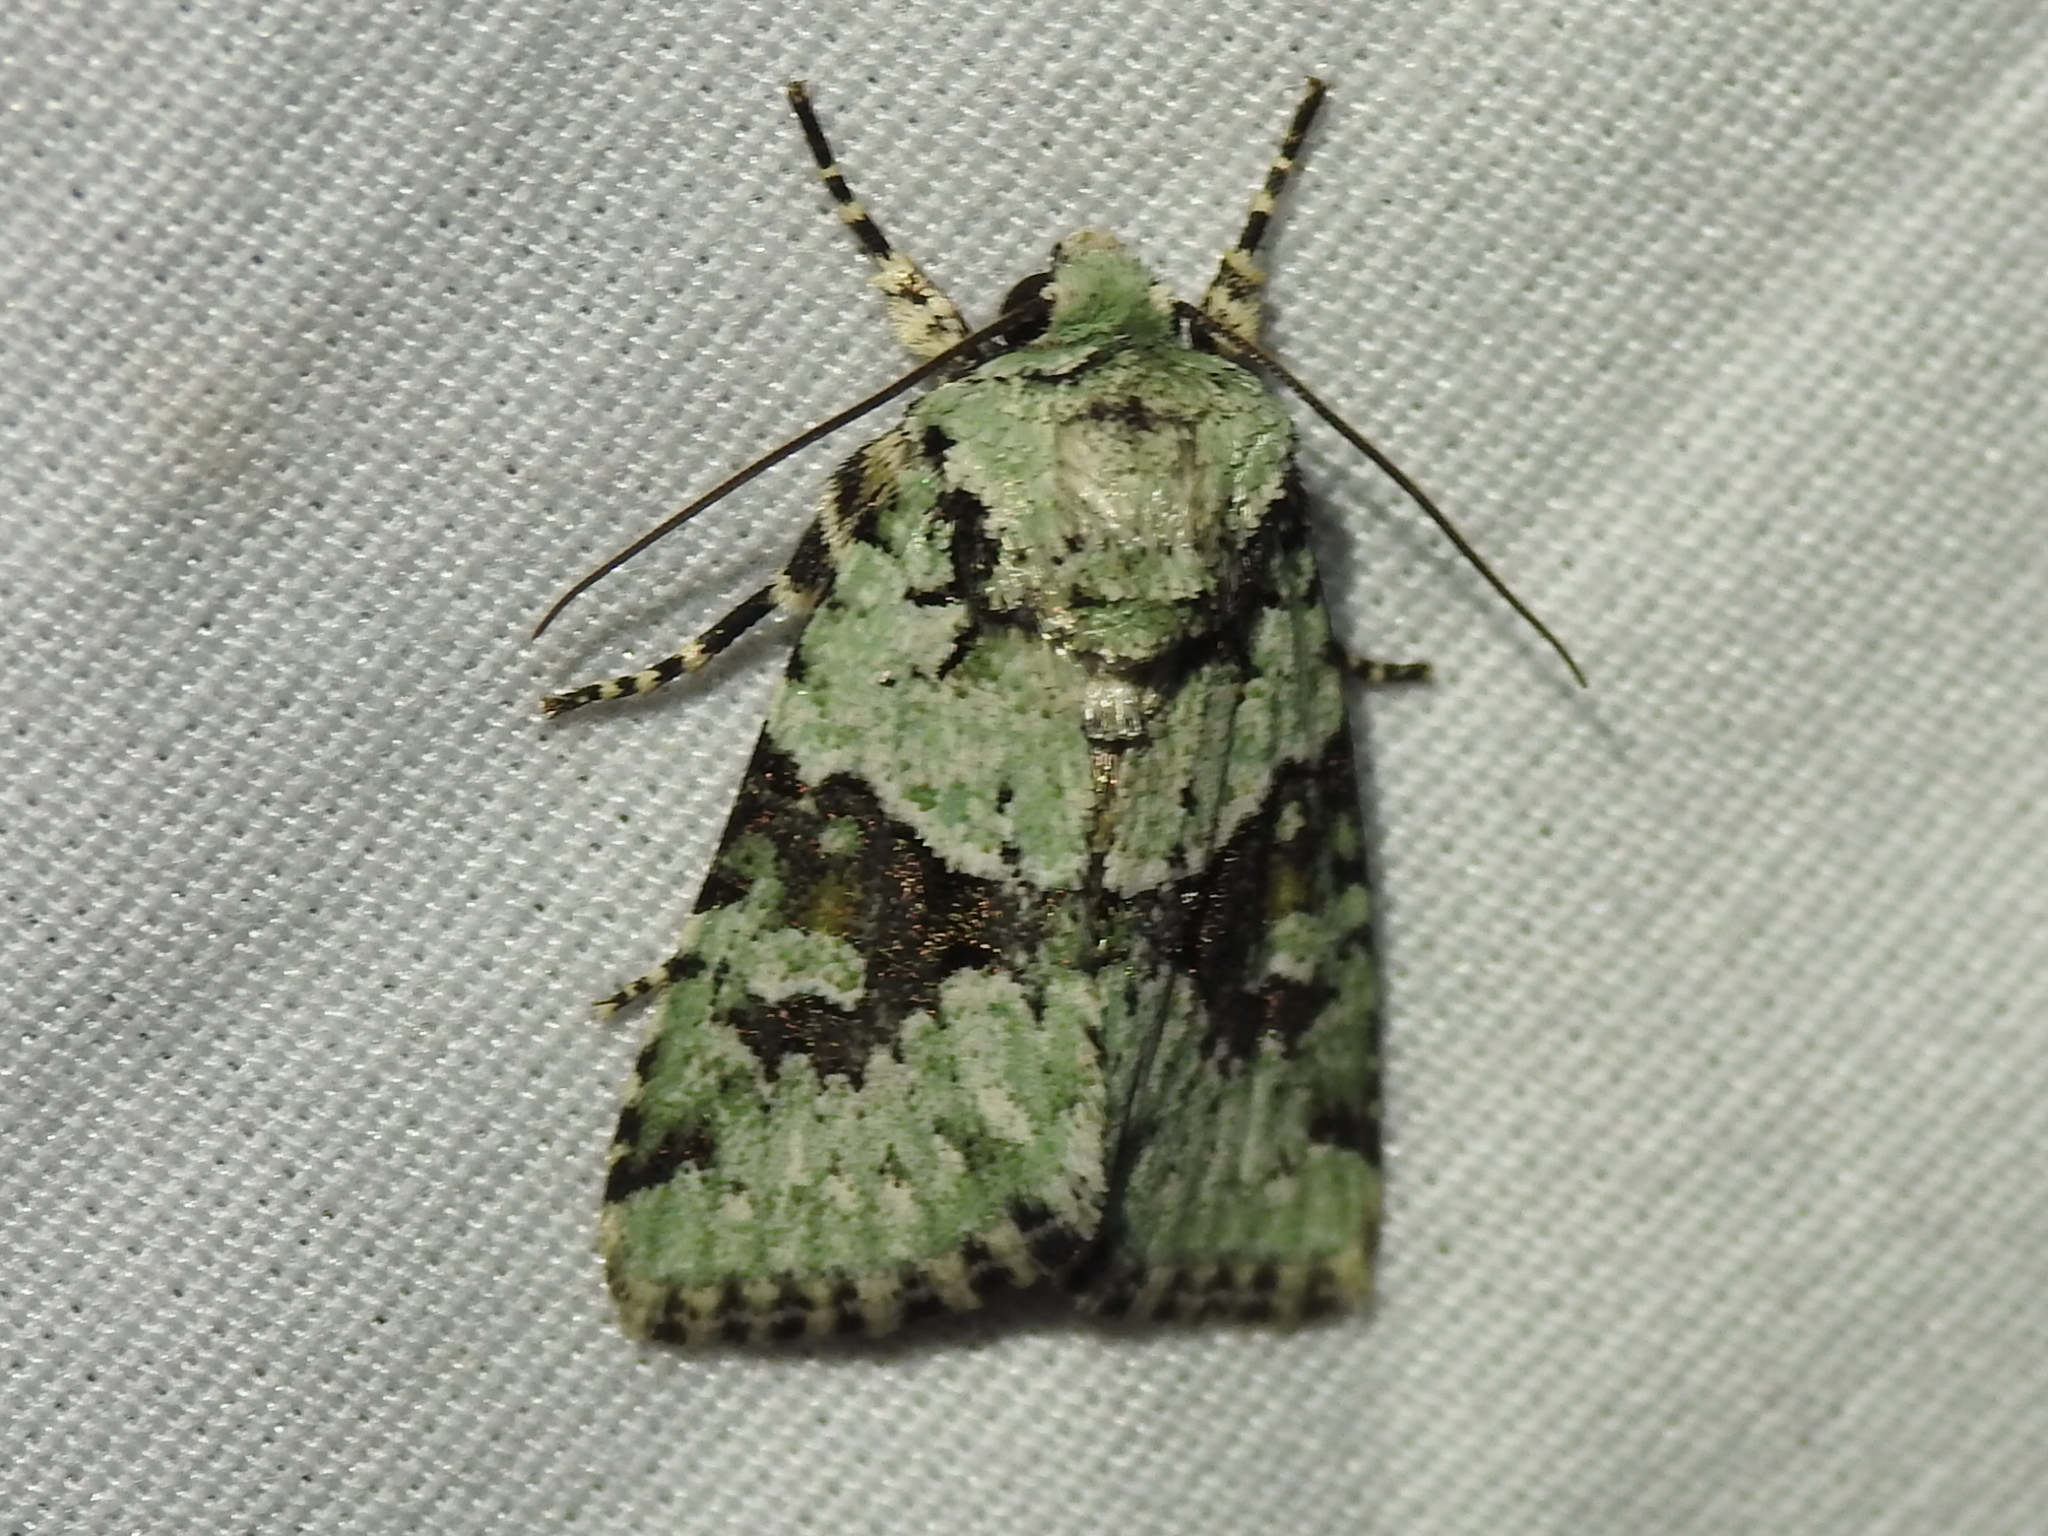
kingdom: Animalia
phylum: Arthropoda
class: Insecta
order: Lepidoptera
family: Noctuidae
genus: Lacinipolia
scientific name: Lacinipolia implicata
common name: Implicit arches
